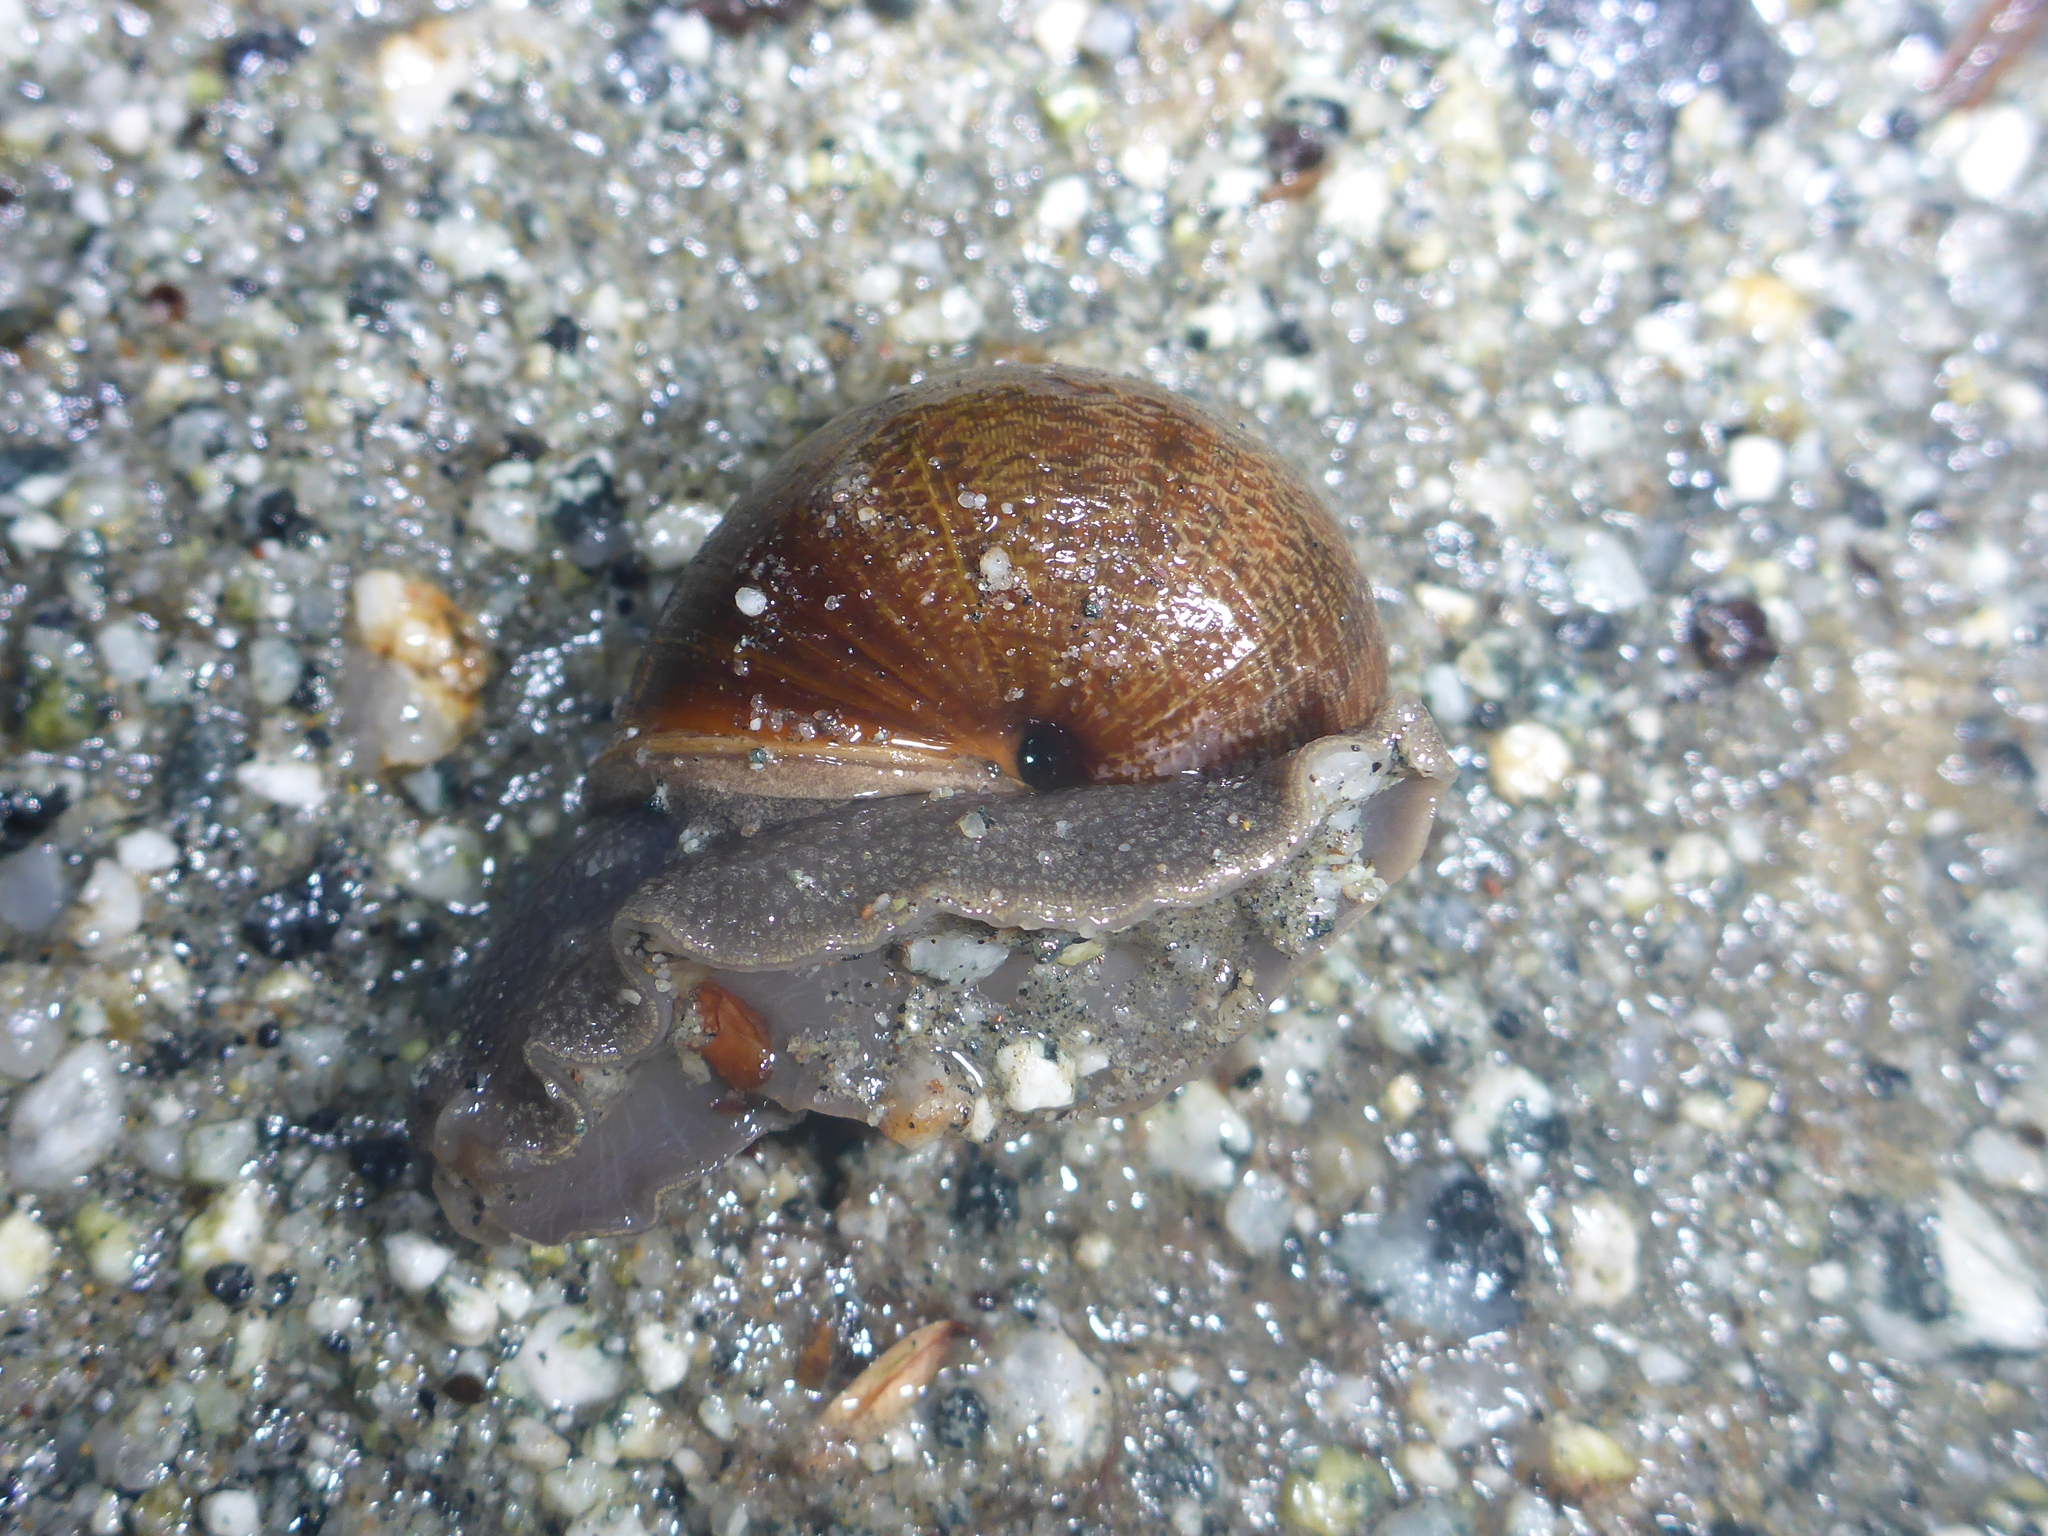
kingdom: Animalia
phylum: Mollusca
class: Gastropoda
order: Stylommatophora
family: Xanthonychidae
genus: Helminthoglypta
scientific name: Helminthoglypta nickliniana
